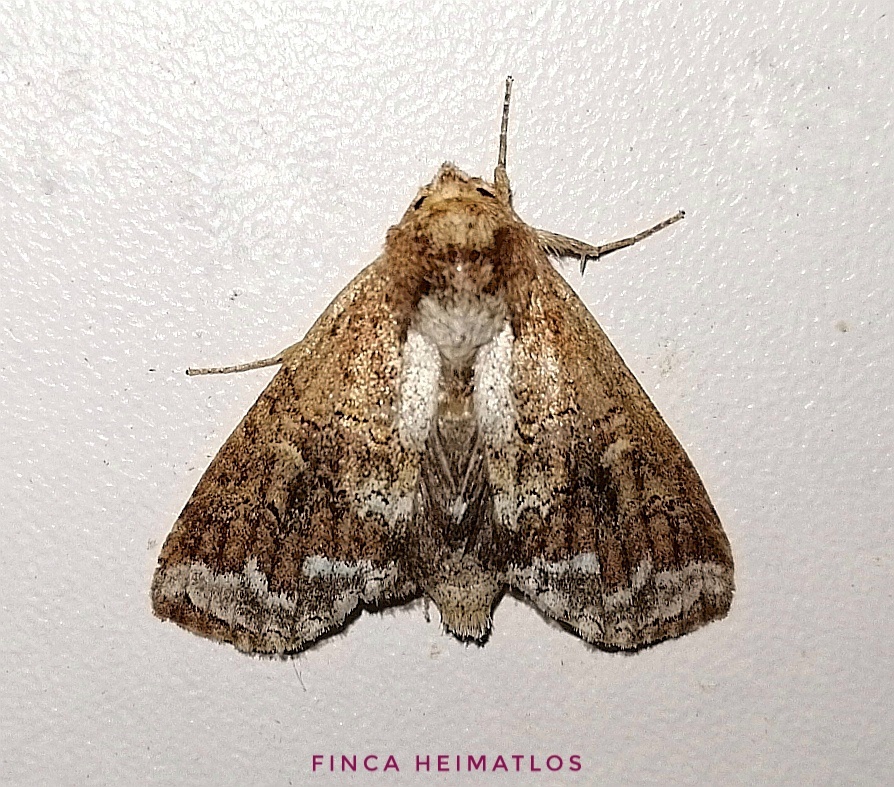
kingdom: Animalia
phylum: Arthropoda
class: Insecta
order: Lepidoptera
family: Notodontidae
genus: Sericochroa
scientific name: Sericochroa lauta
